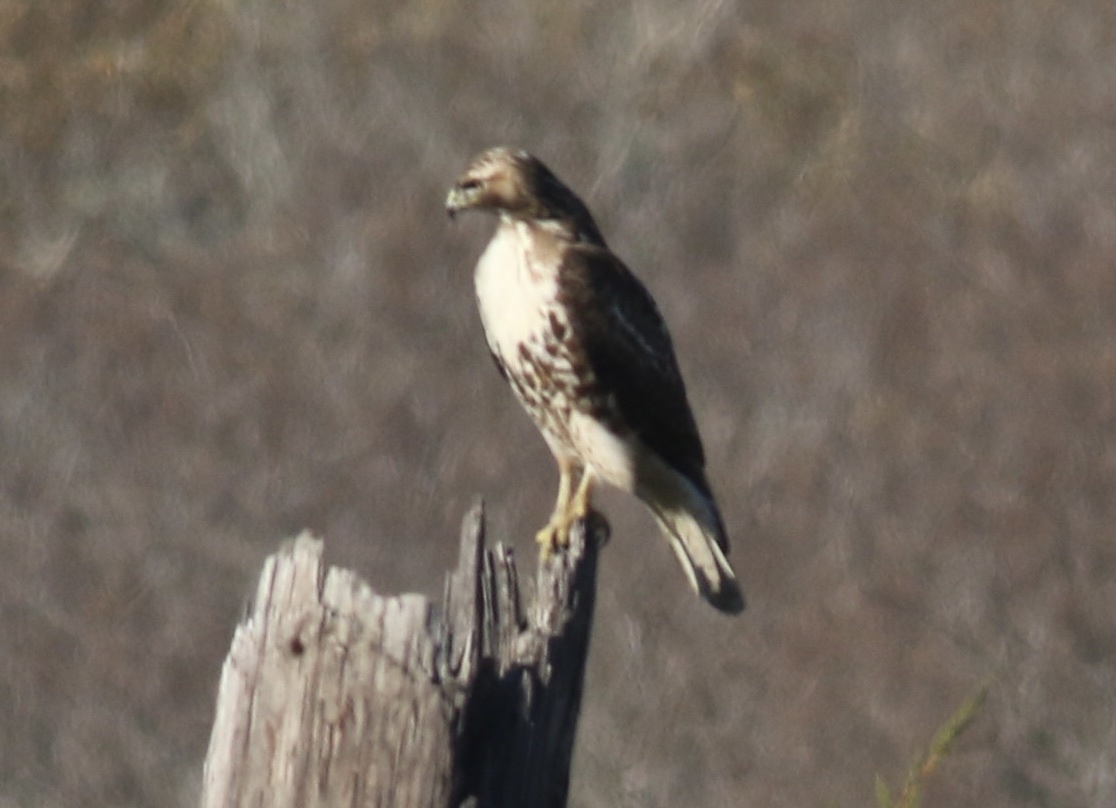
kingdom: Animalia
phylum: Chordata
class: Aves
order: Accipitriformes
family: Accipitridae
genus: Buteo
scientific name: Buteo jamaicensis
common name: Red-tailed hawk
